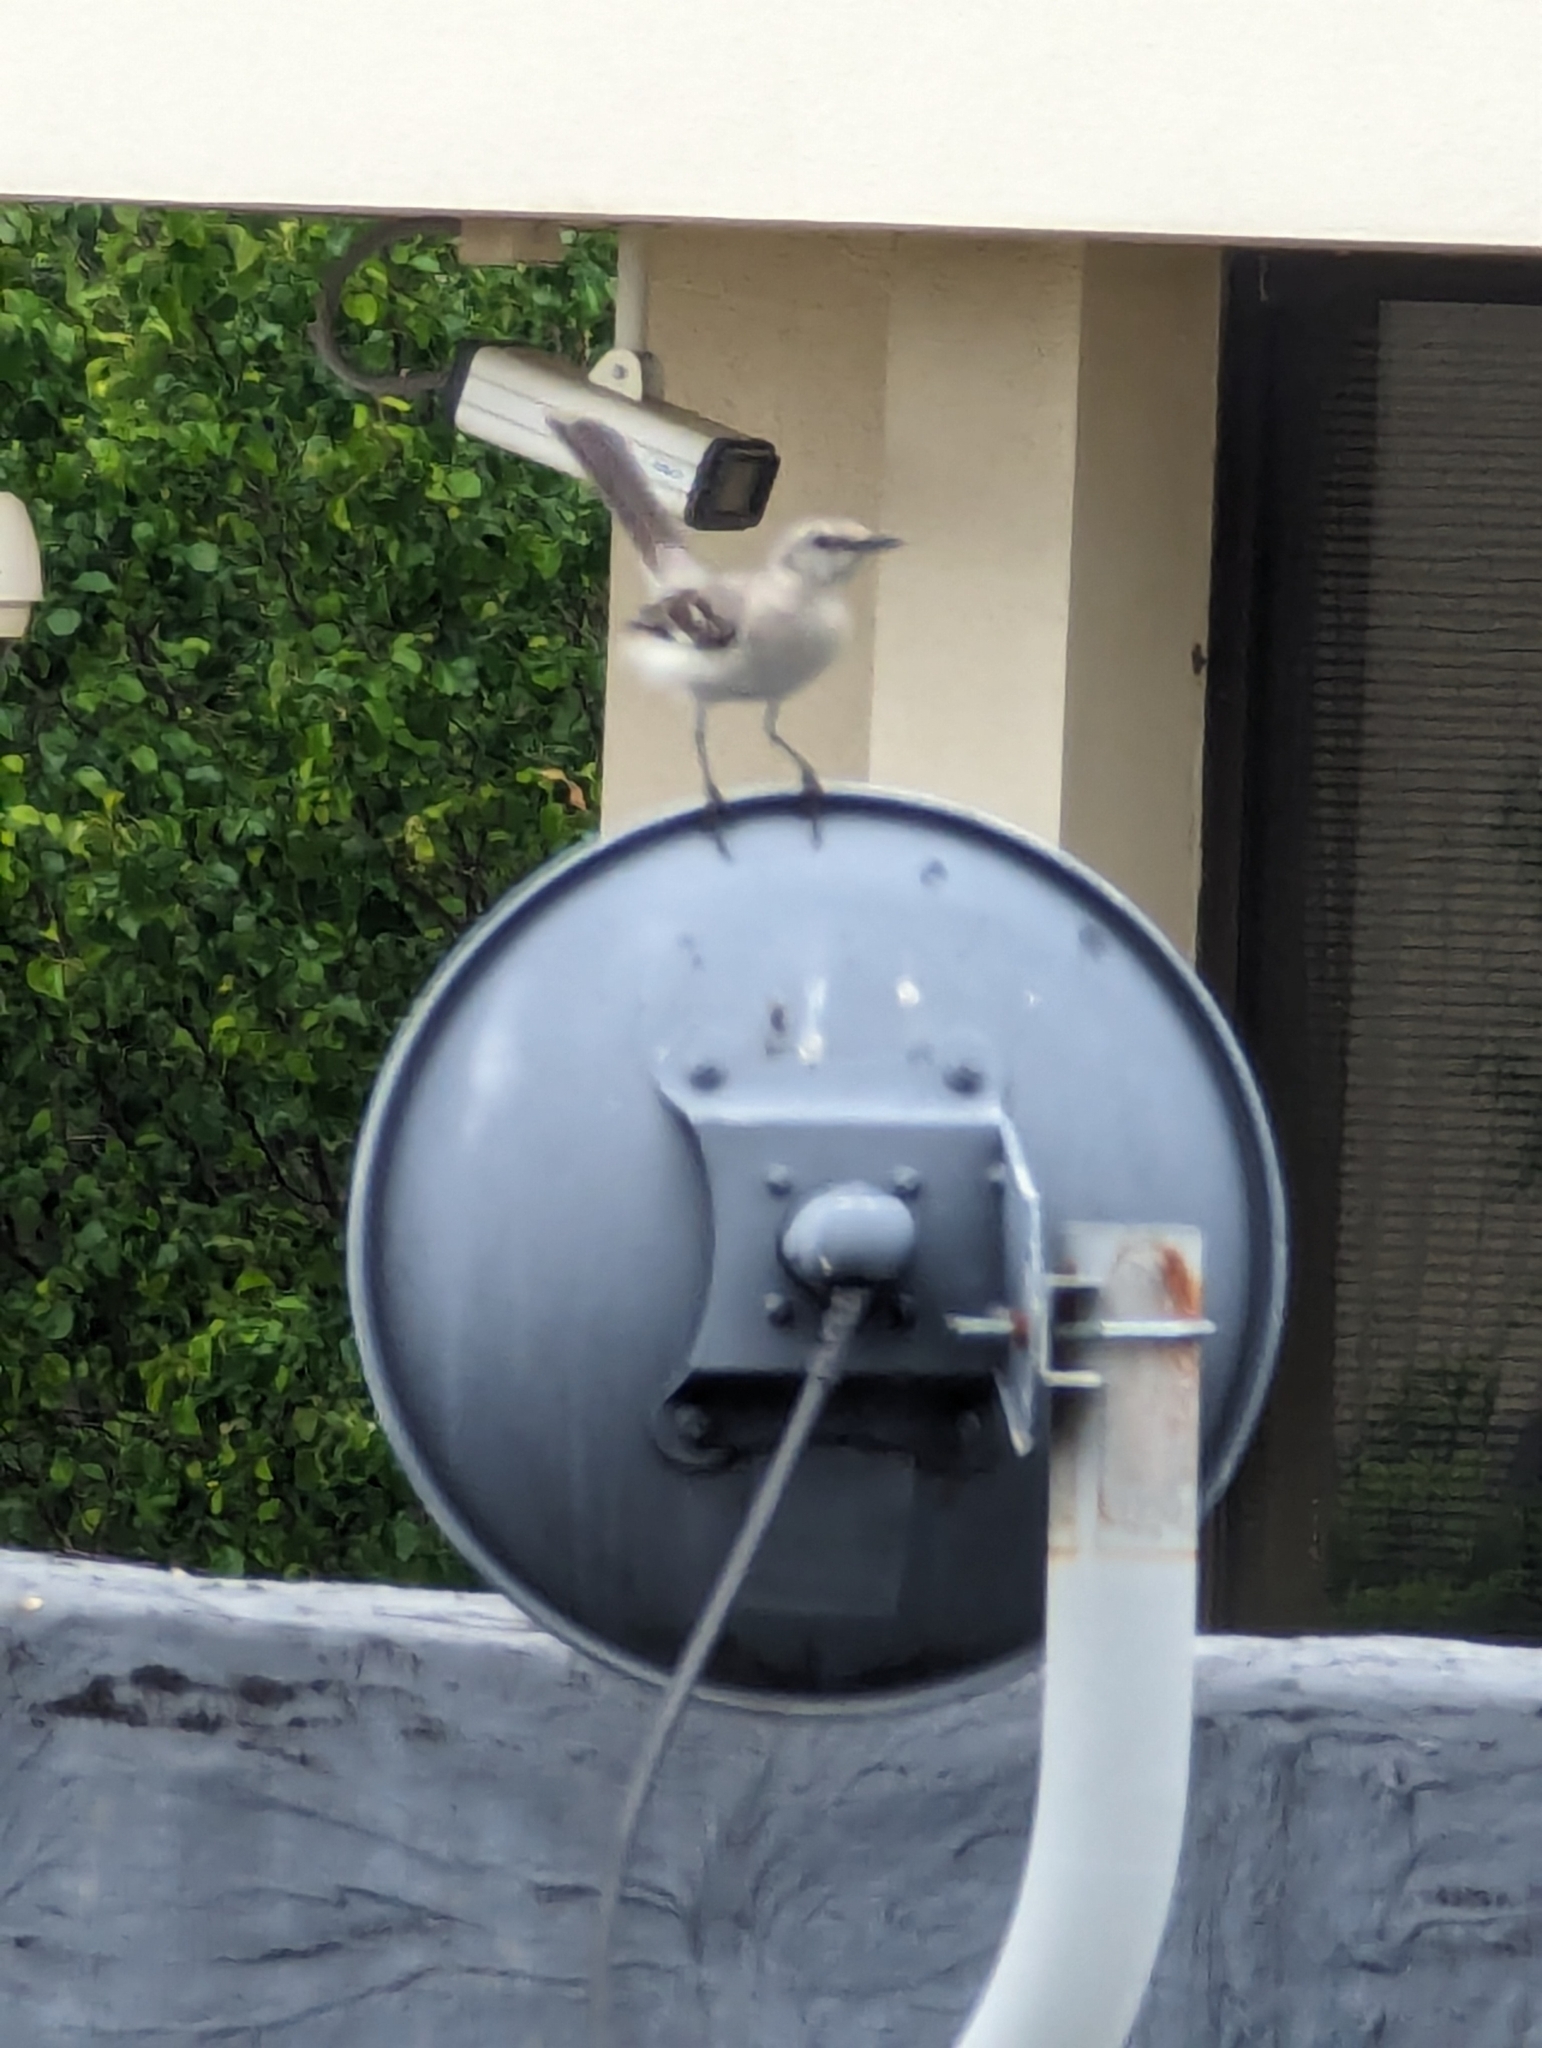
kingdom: Animalia
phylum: Chordata
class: Aves
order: Passeriformes
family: Mimidae
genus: Mimus
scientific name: Mimus polyglottos
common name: Northern mockingbird
